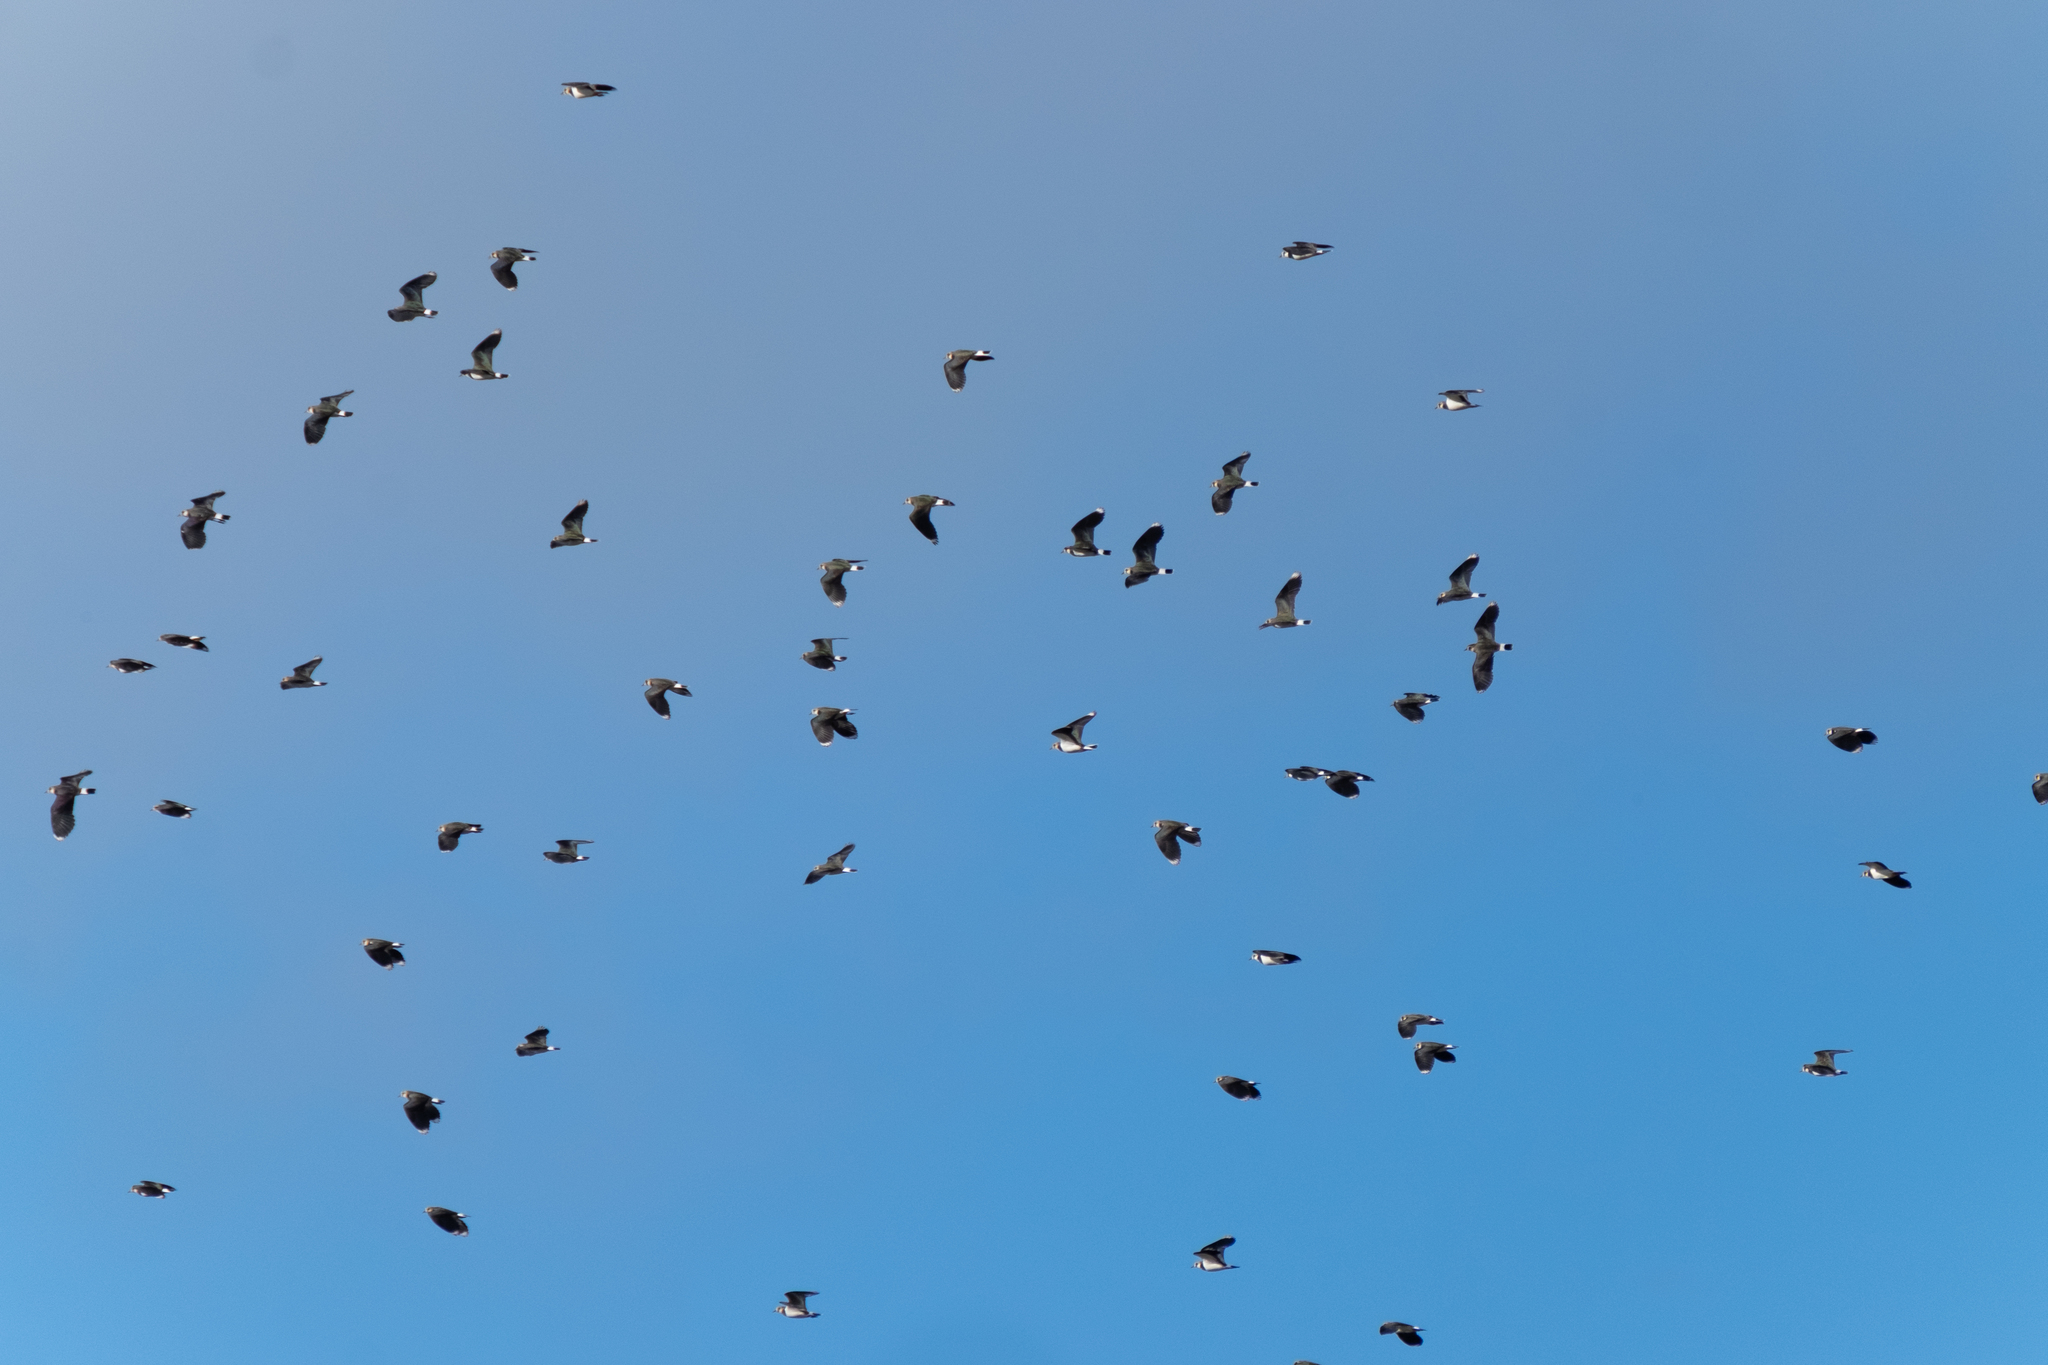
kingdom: Animalia
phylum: Chordata
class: Aves
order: Charadriiformes
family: Charadriidae
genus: Vanellus
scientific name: Vanellus vanellus
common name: Northern lapwing
